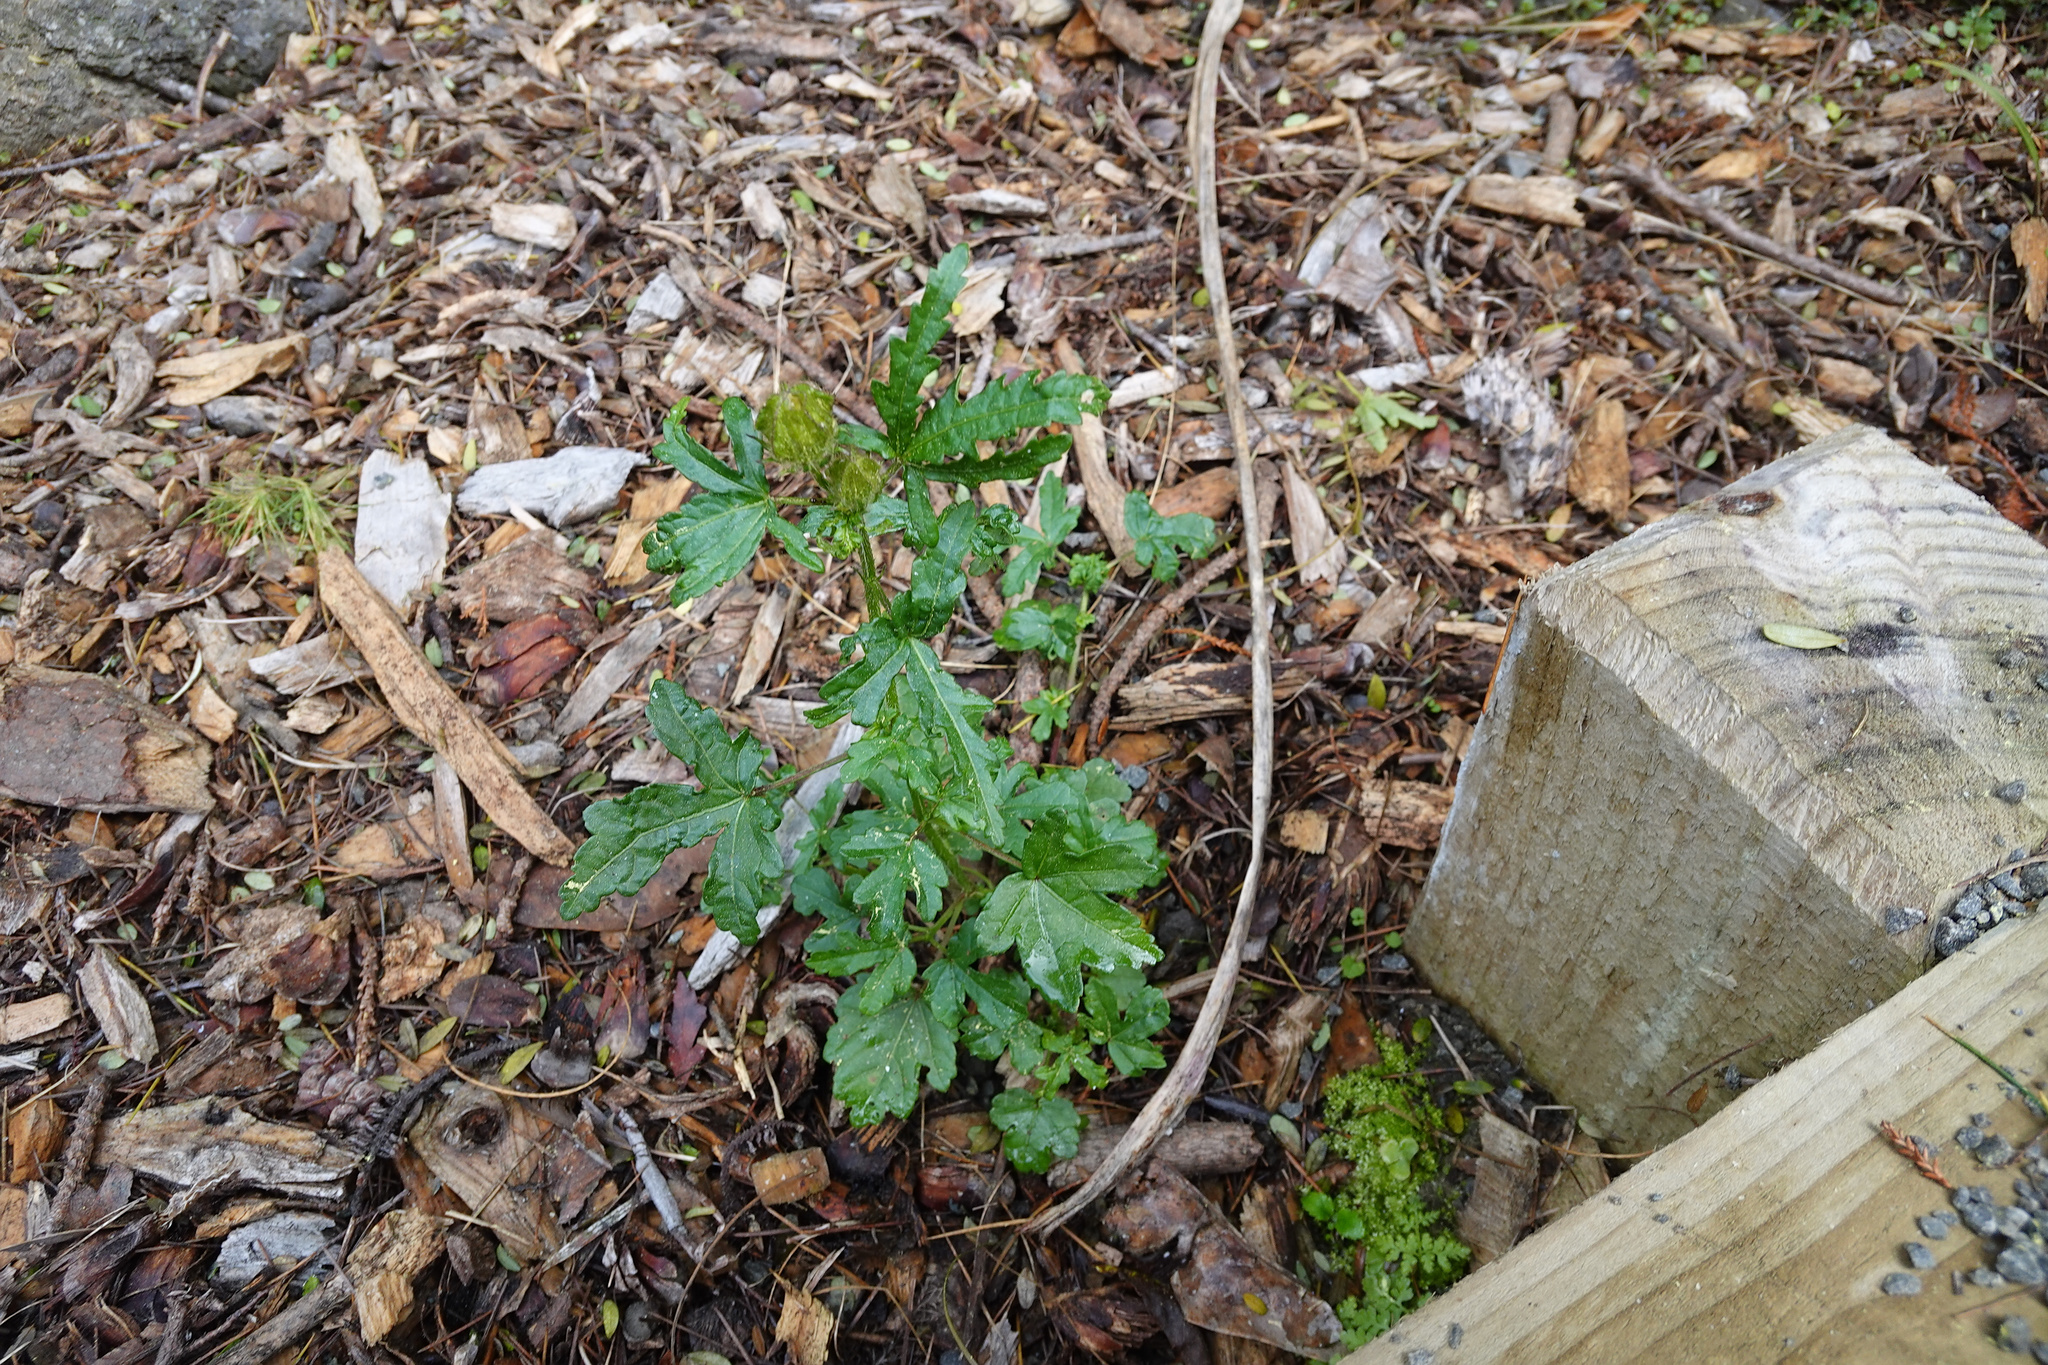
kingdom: Plantae
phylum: Tracheophyta
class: Magnoliopsida
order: Malvales
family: Malvaceae
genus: Hibiscus
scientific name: Hibiscus trionum
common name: Bladder ketmia
